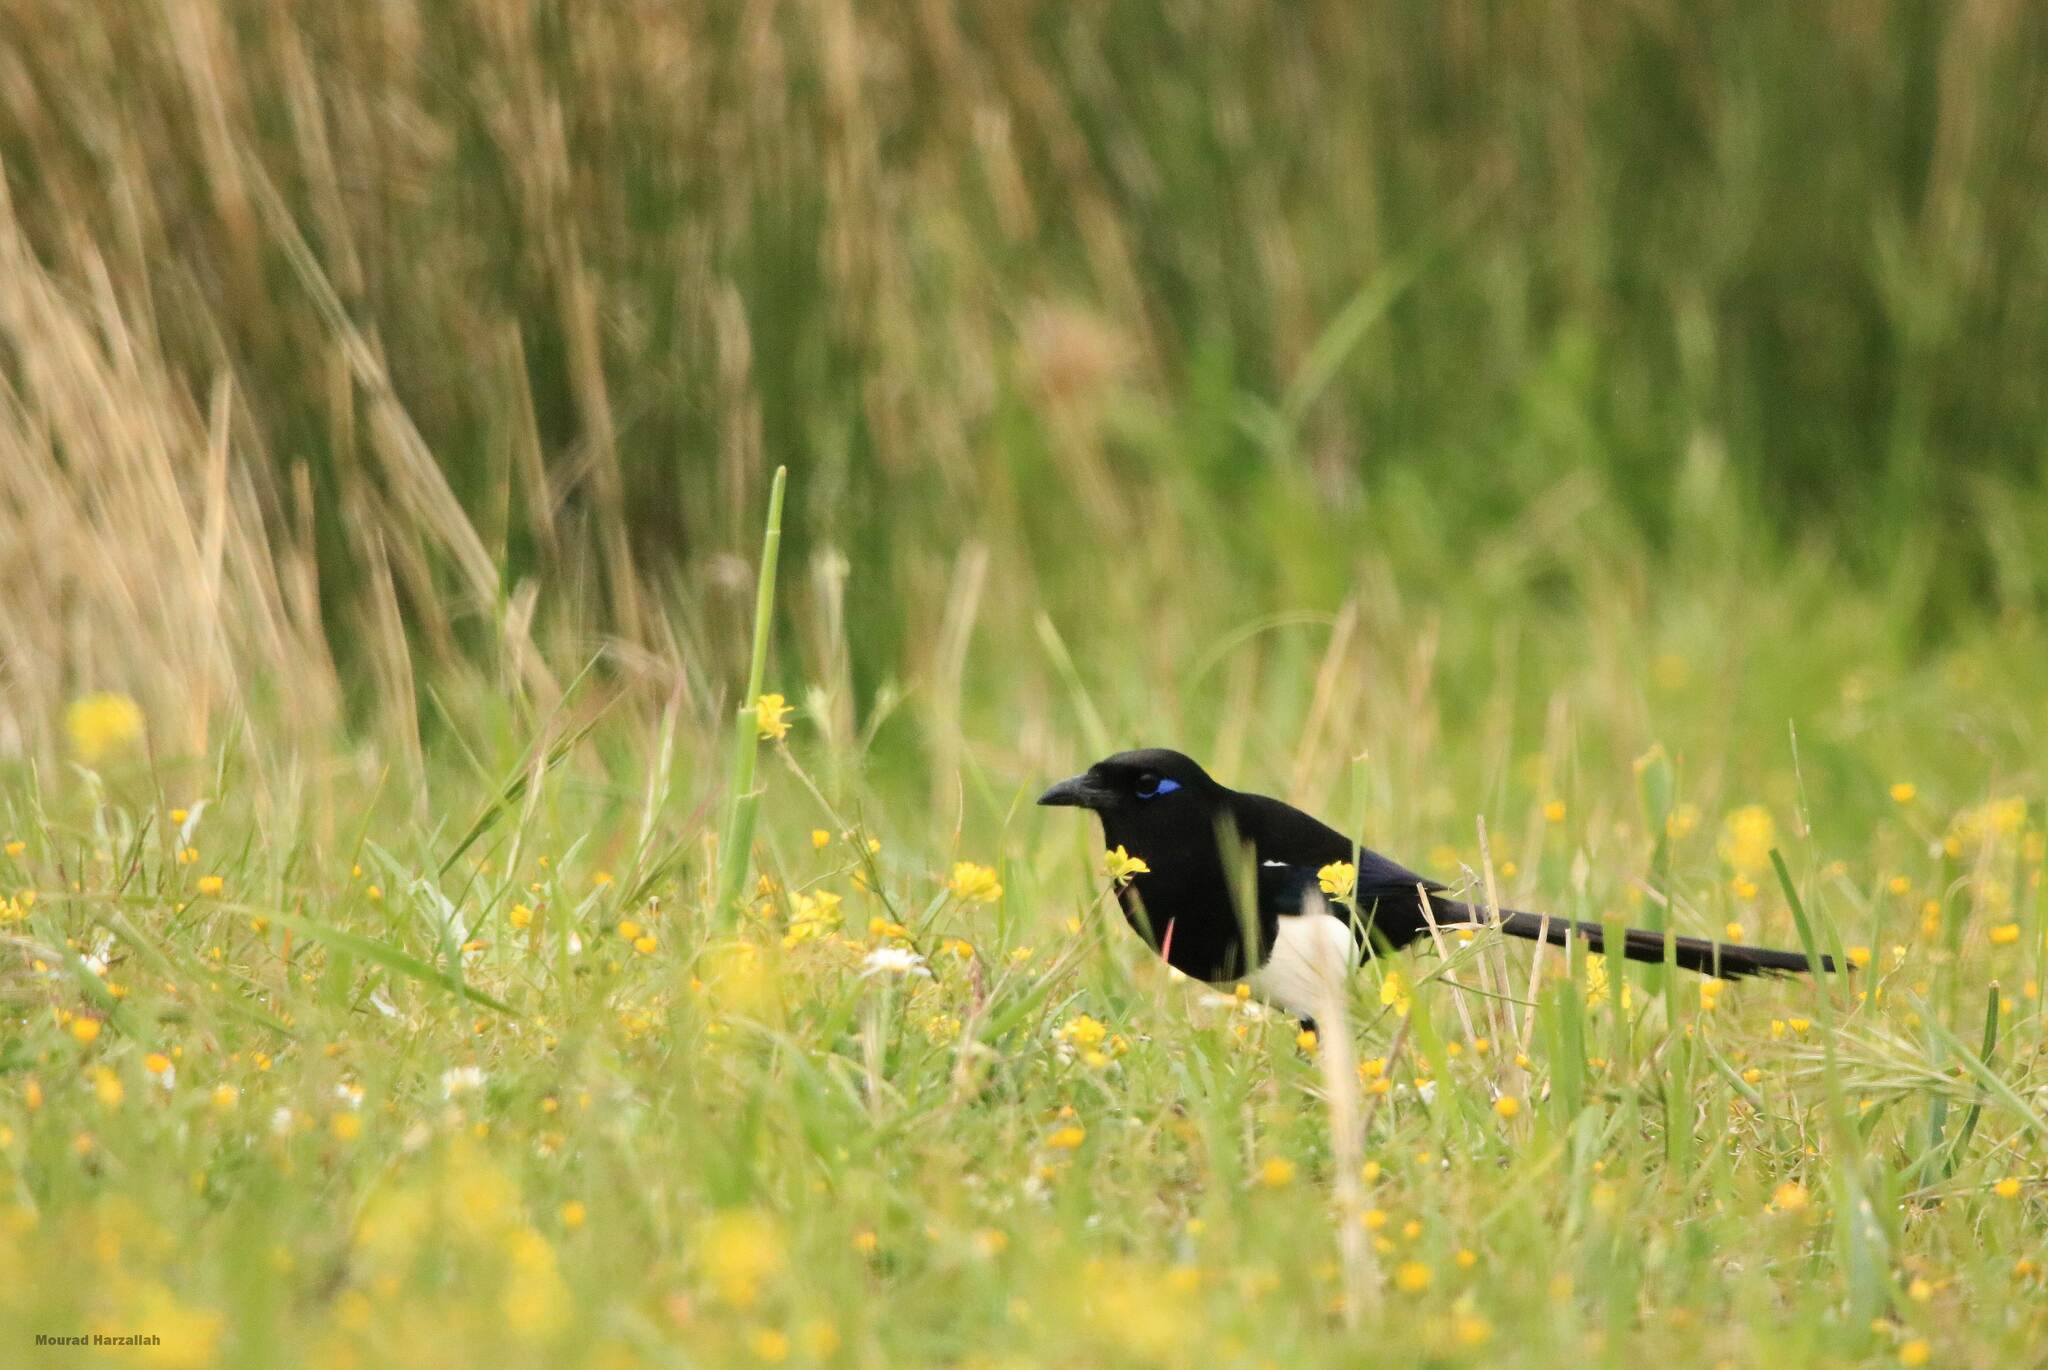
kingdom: Animalia
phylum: Chordata
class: Aves
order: Passeriformes
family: Corvidae
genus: Pica
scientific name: Pica mauritanica
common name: Maghreb magpie
